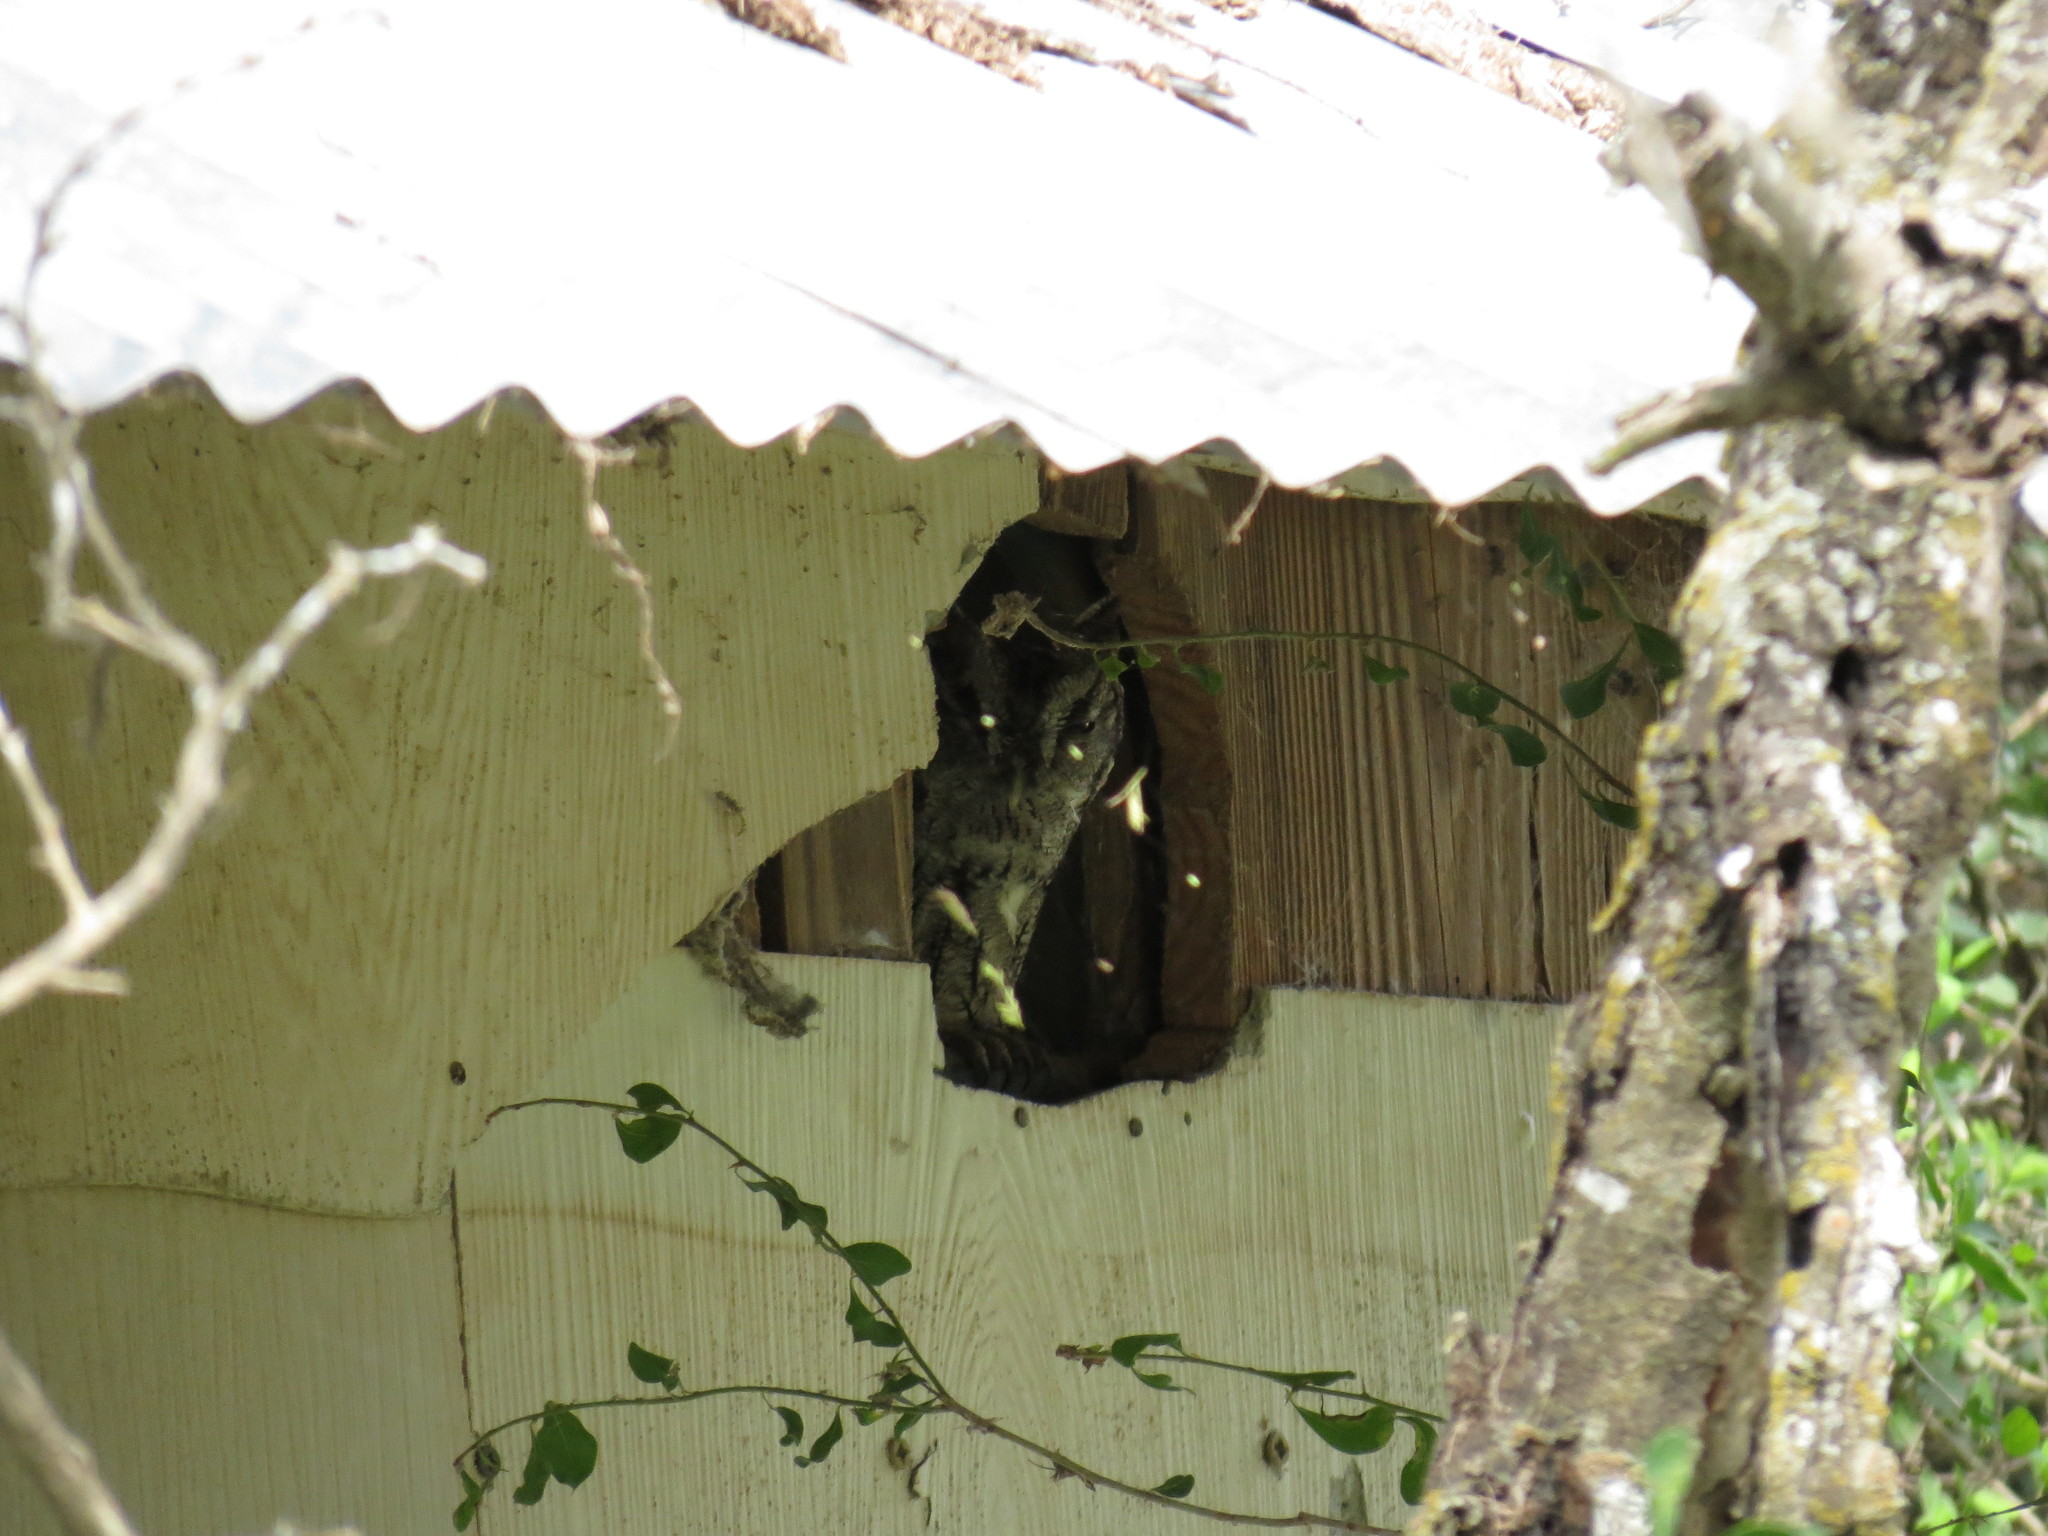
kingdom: Animalia
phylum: Chordata
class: Aves
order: Strigiformes
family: Strigidae
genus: Megascops
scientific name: Megascops asio
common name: Eastern screech-owl
